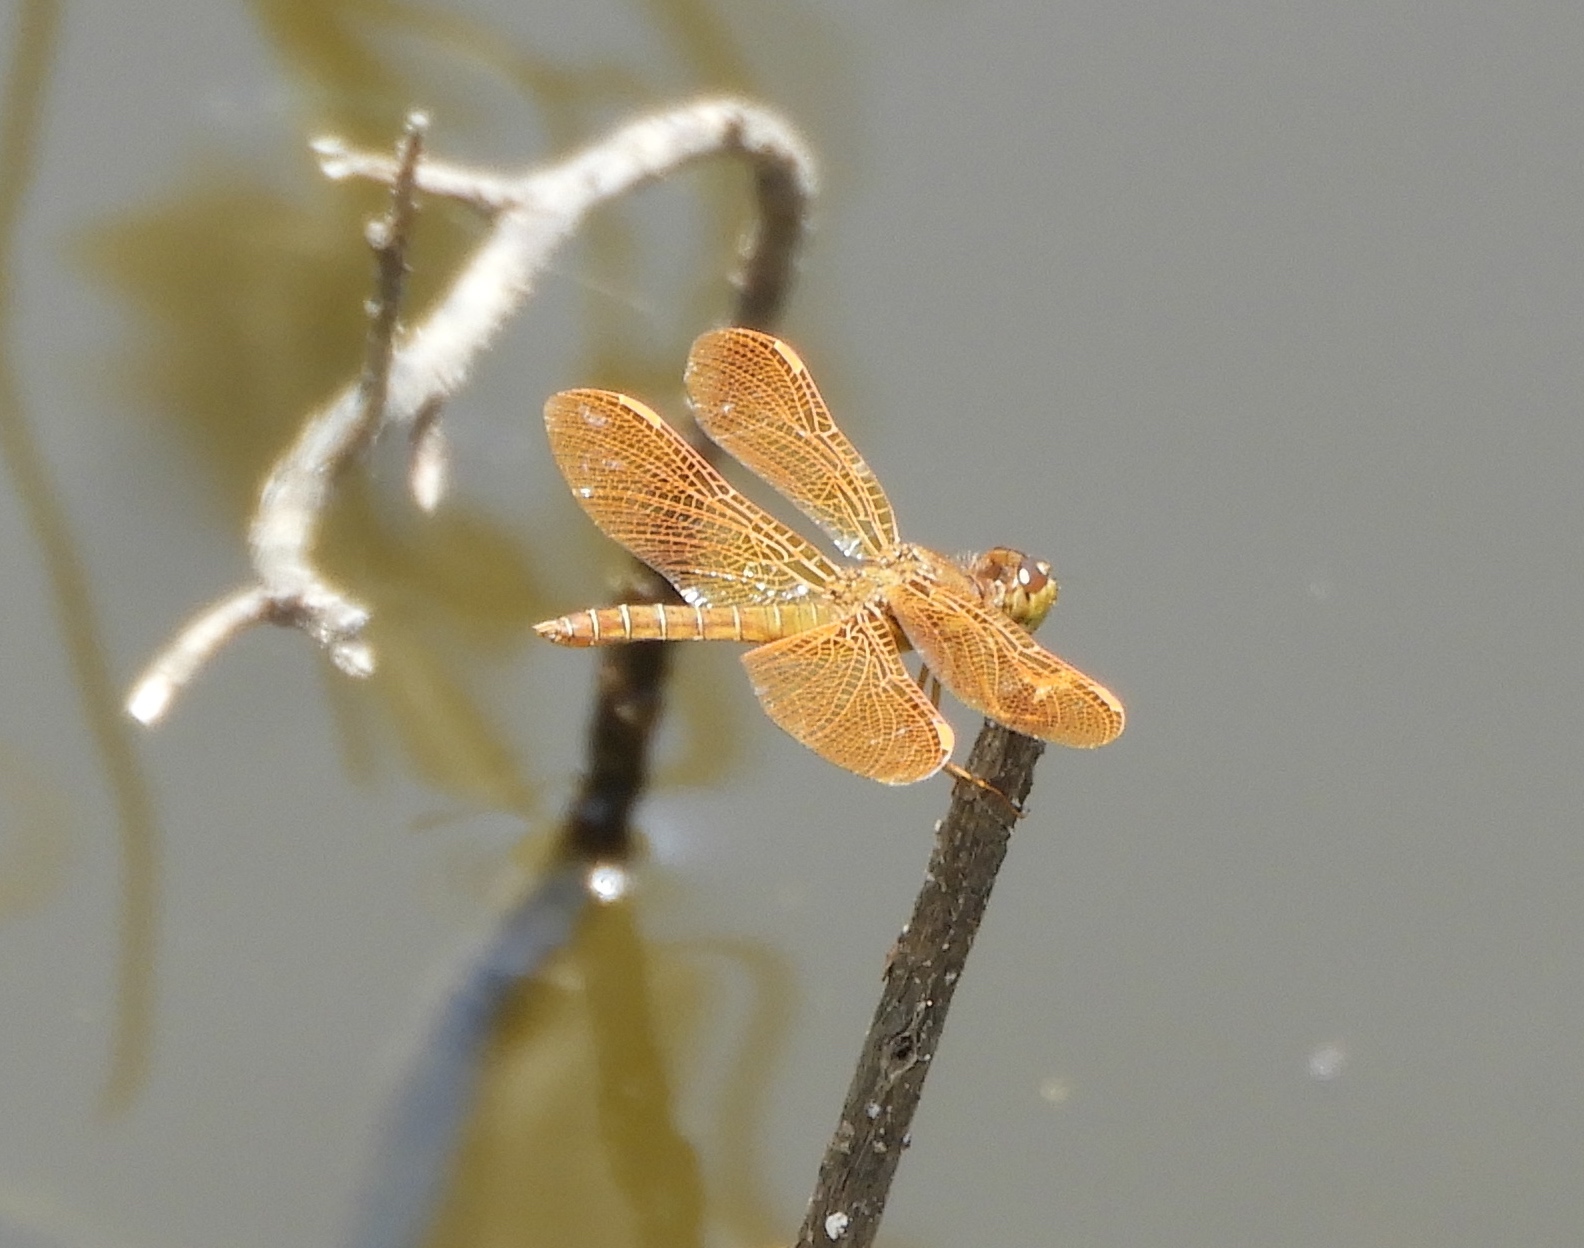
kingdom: Animalia
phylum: Arthropoda
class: Insecta
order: Odonata
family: Libellulidae
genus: Perithemis
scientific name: Perithemis intensa
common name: Mexican amberwing
